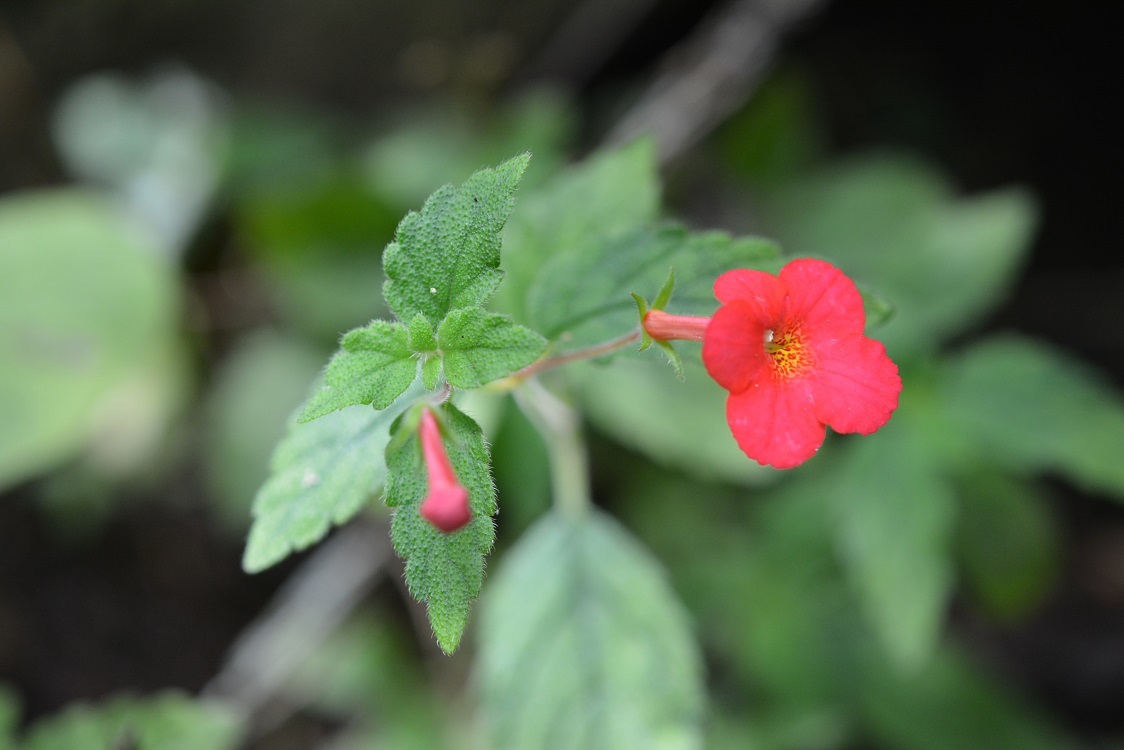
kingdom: Plantae
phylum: Tracheophyta
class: Magnoliopsida
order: Lamiales
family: Gesneriaceae
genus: Achimenes
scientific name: Achimenes erecta
